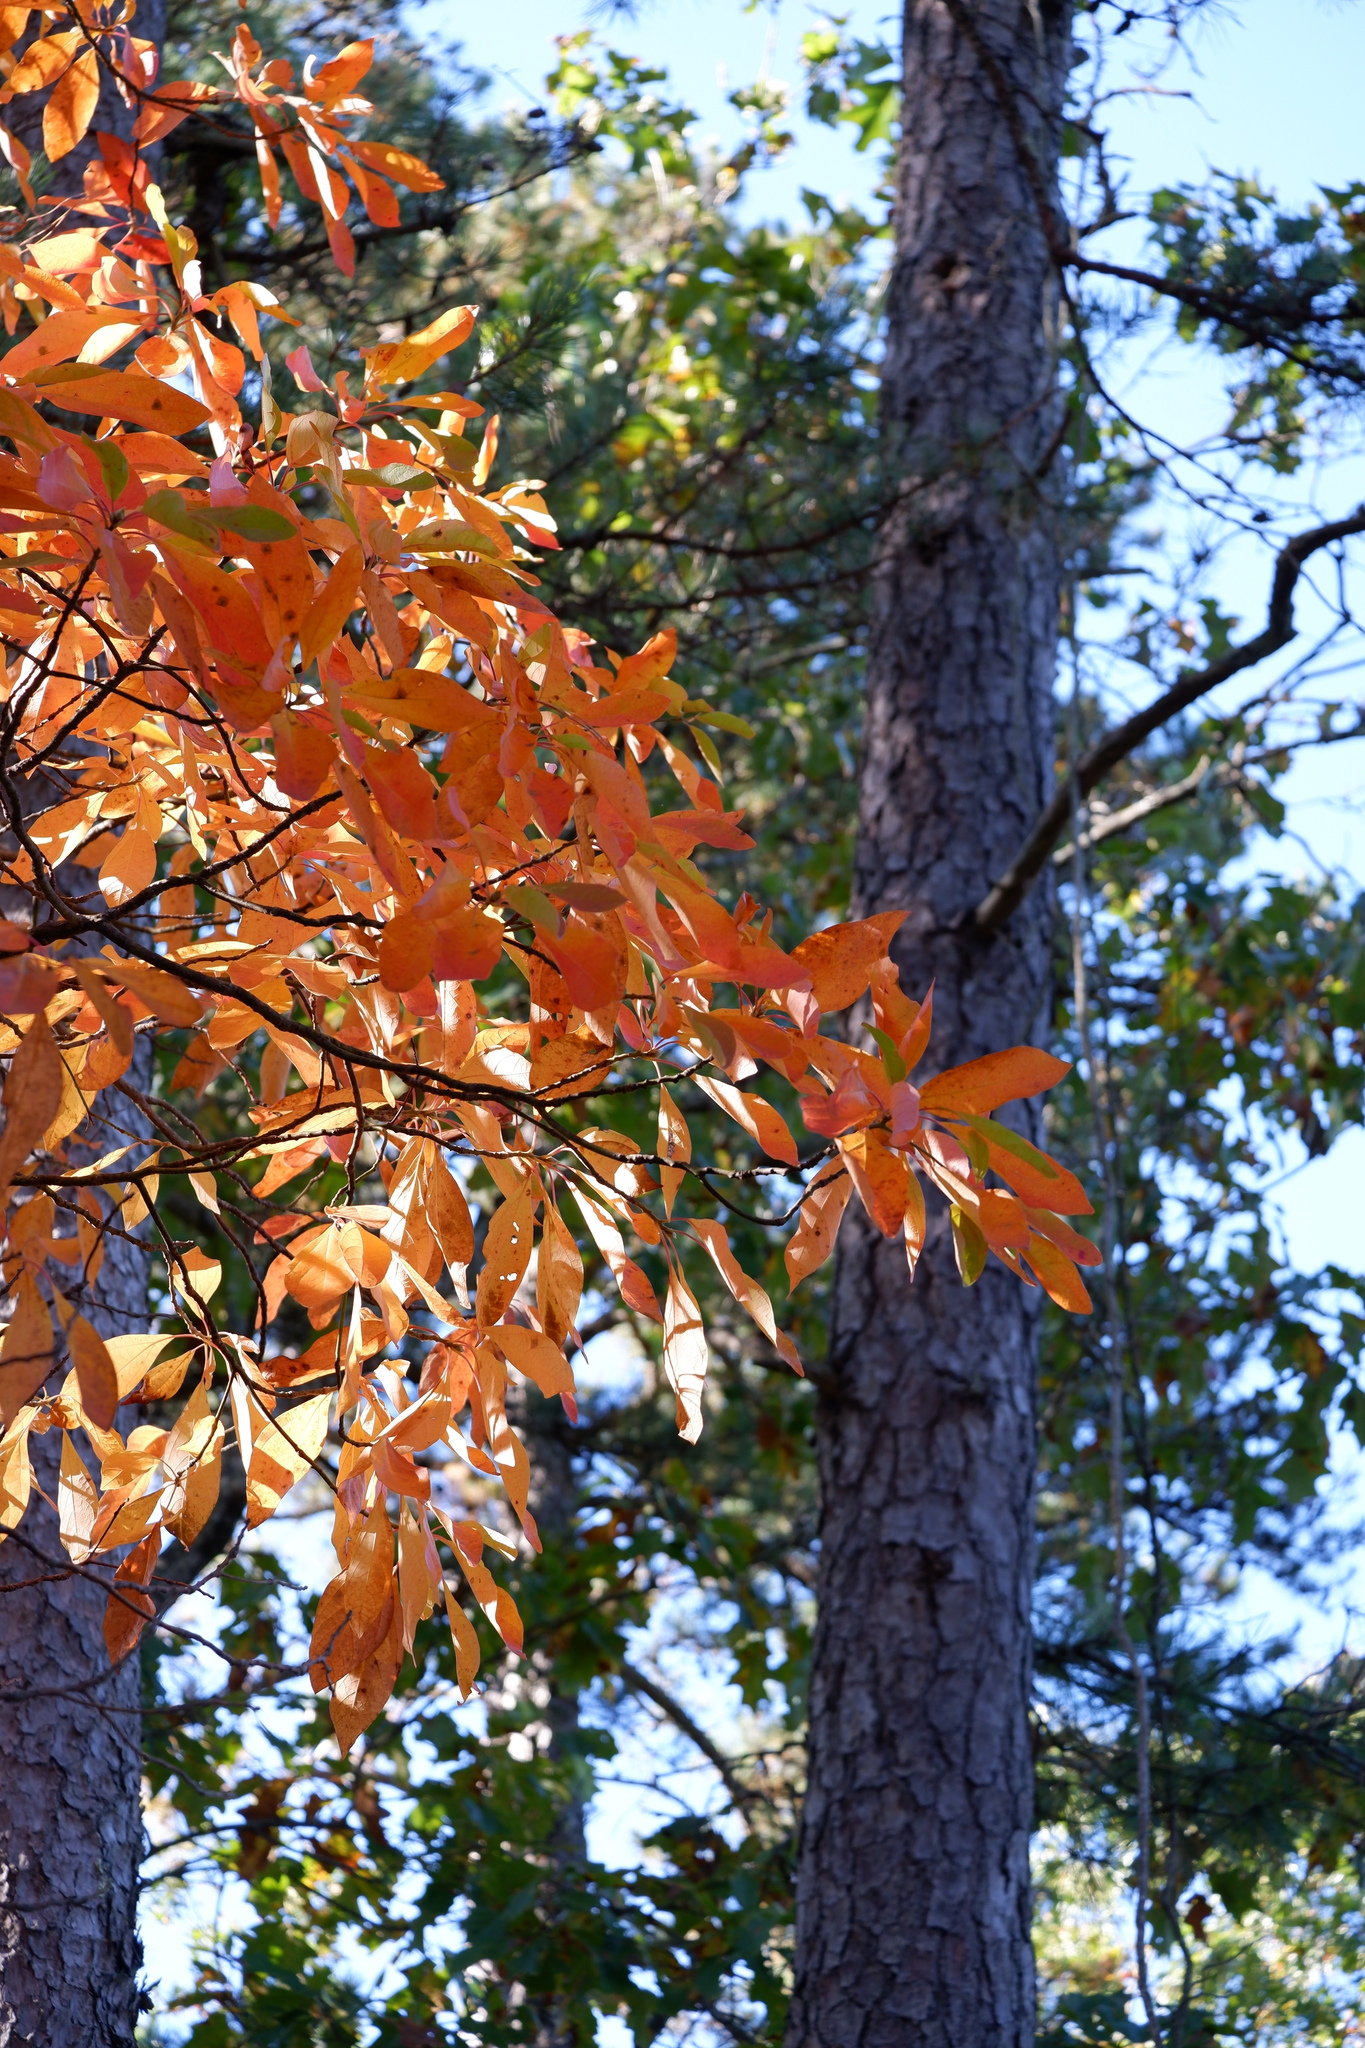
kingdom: Plantae
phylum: Tracheophyta
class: Magnoliopsida
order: Laurales
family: Lauraceae
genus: Sassafras
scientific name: Sassafras albidum
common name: Sassafras
